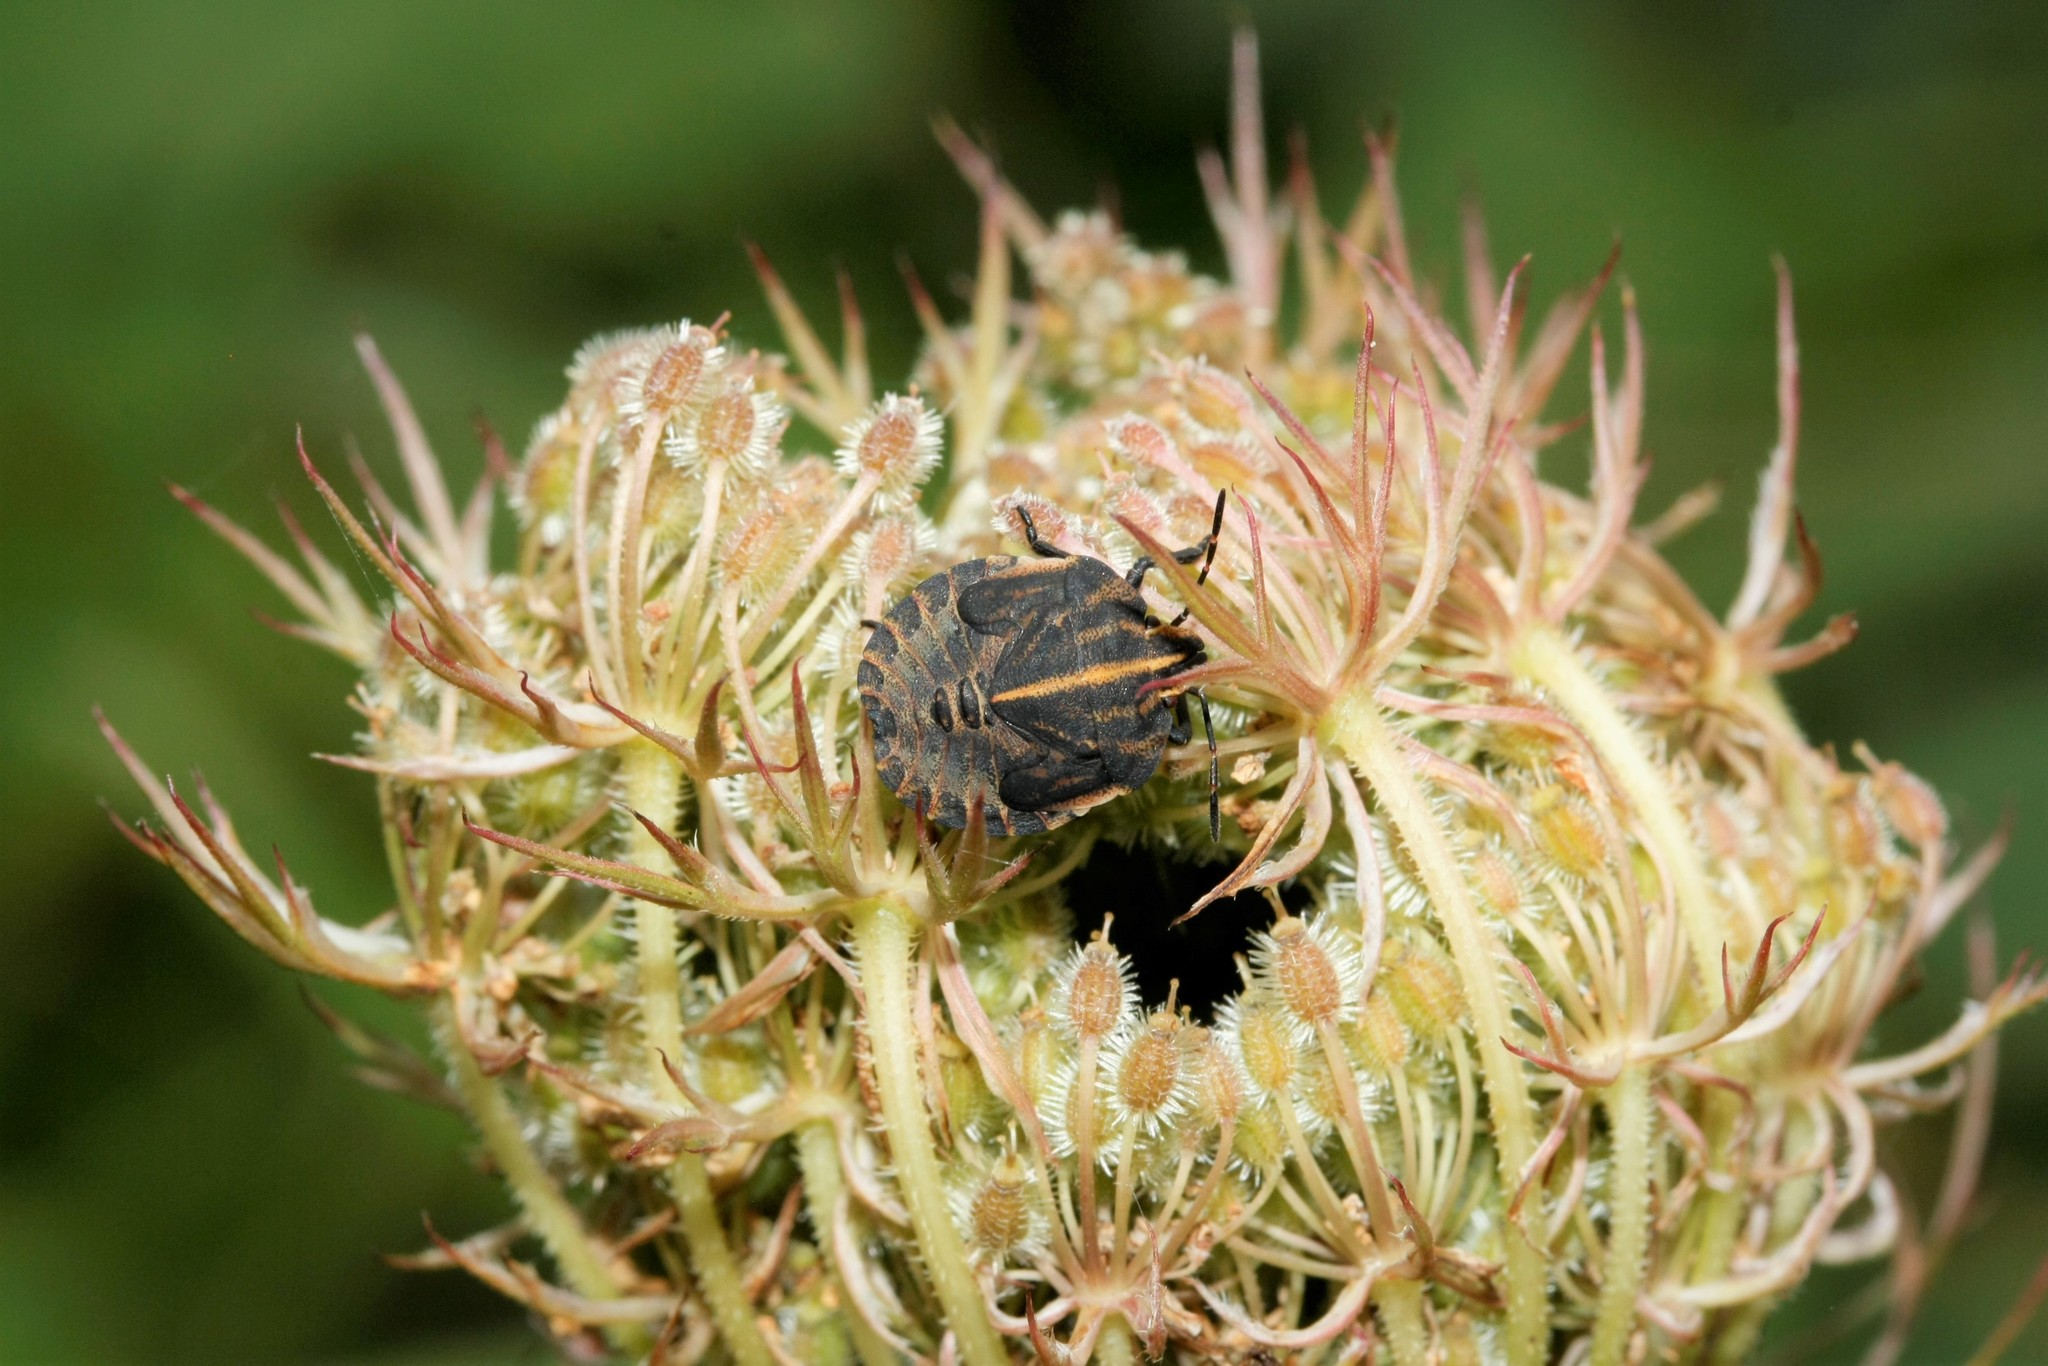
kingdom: Animalia
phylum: Arthropoda
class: Insecta
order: Hemiptera
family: Pentatomidae
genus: Graphosoma
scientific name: Graphosoma italicum
